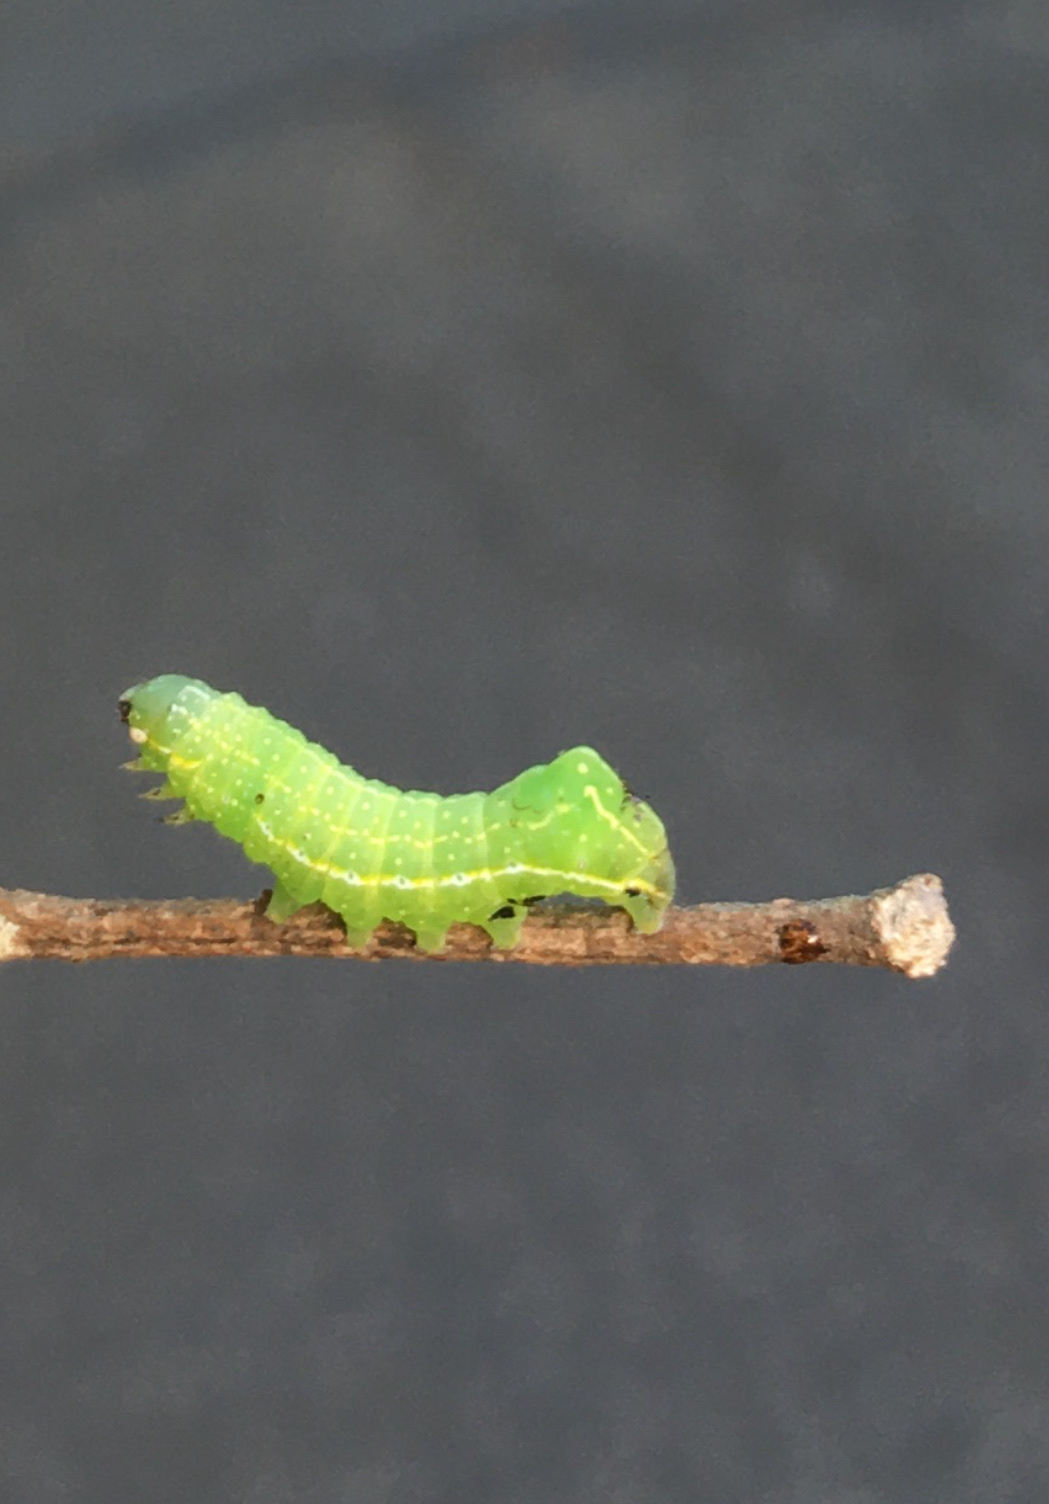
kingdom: Animalia
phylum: Arthropoda
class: Insecta
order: Lepidoptera
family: Noctuidae
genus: Amphipyra
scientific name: Amphipyra pyramidoides
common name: American copper underwing
